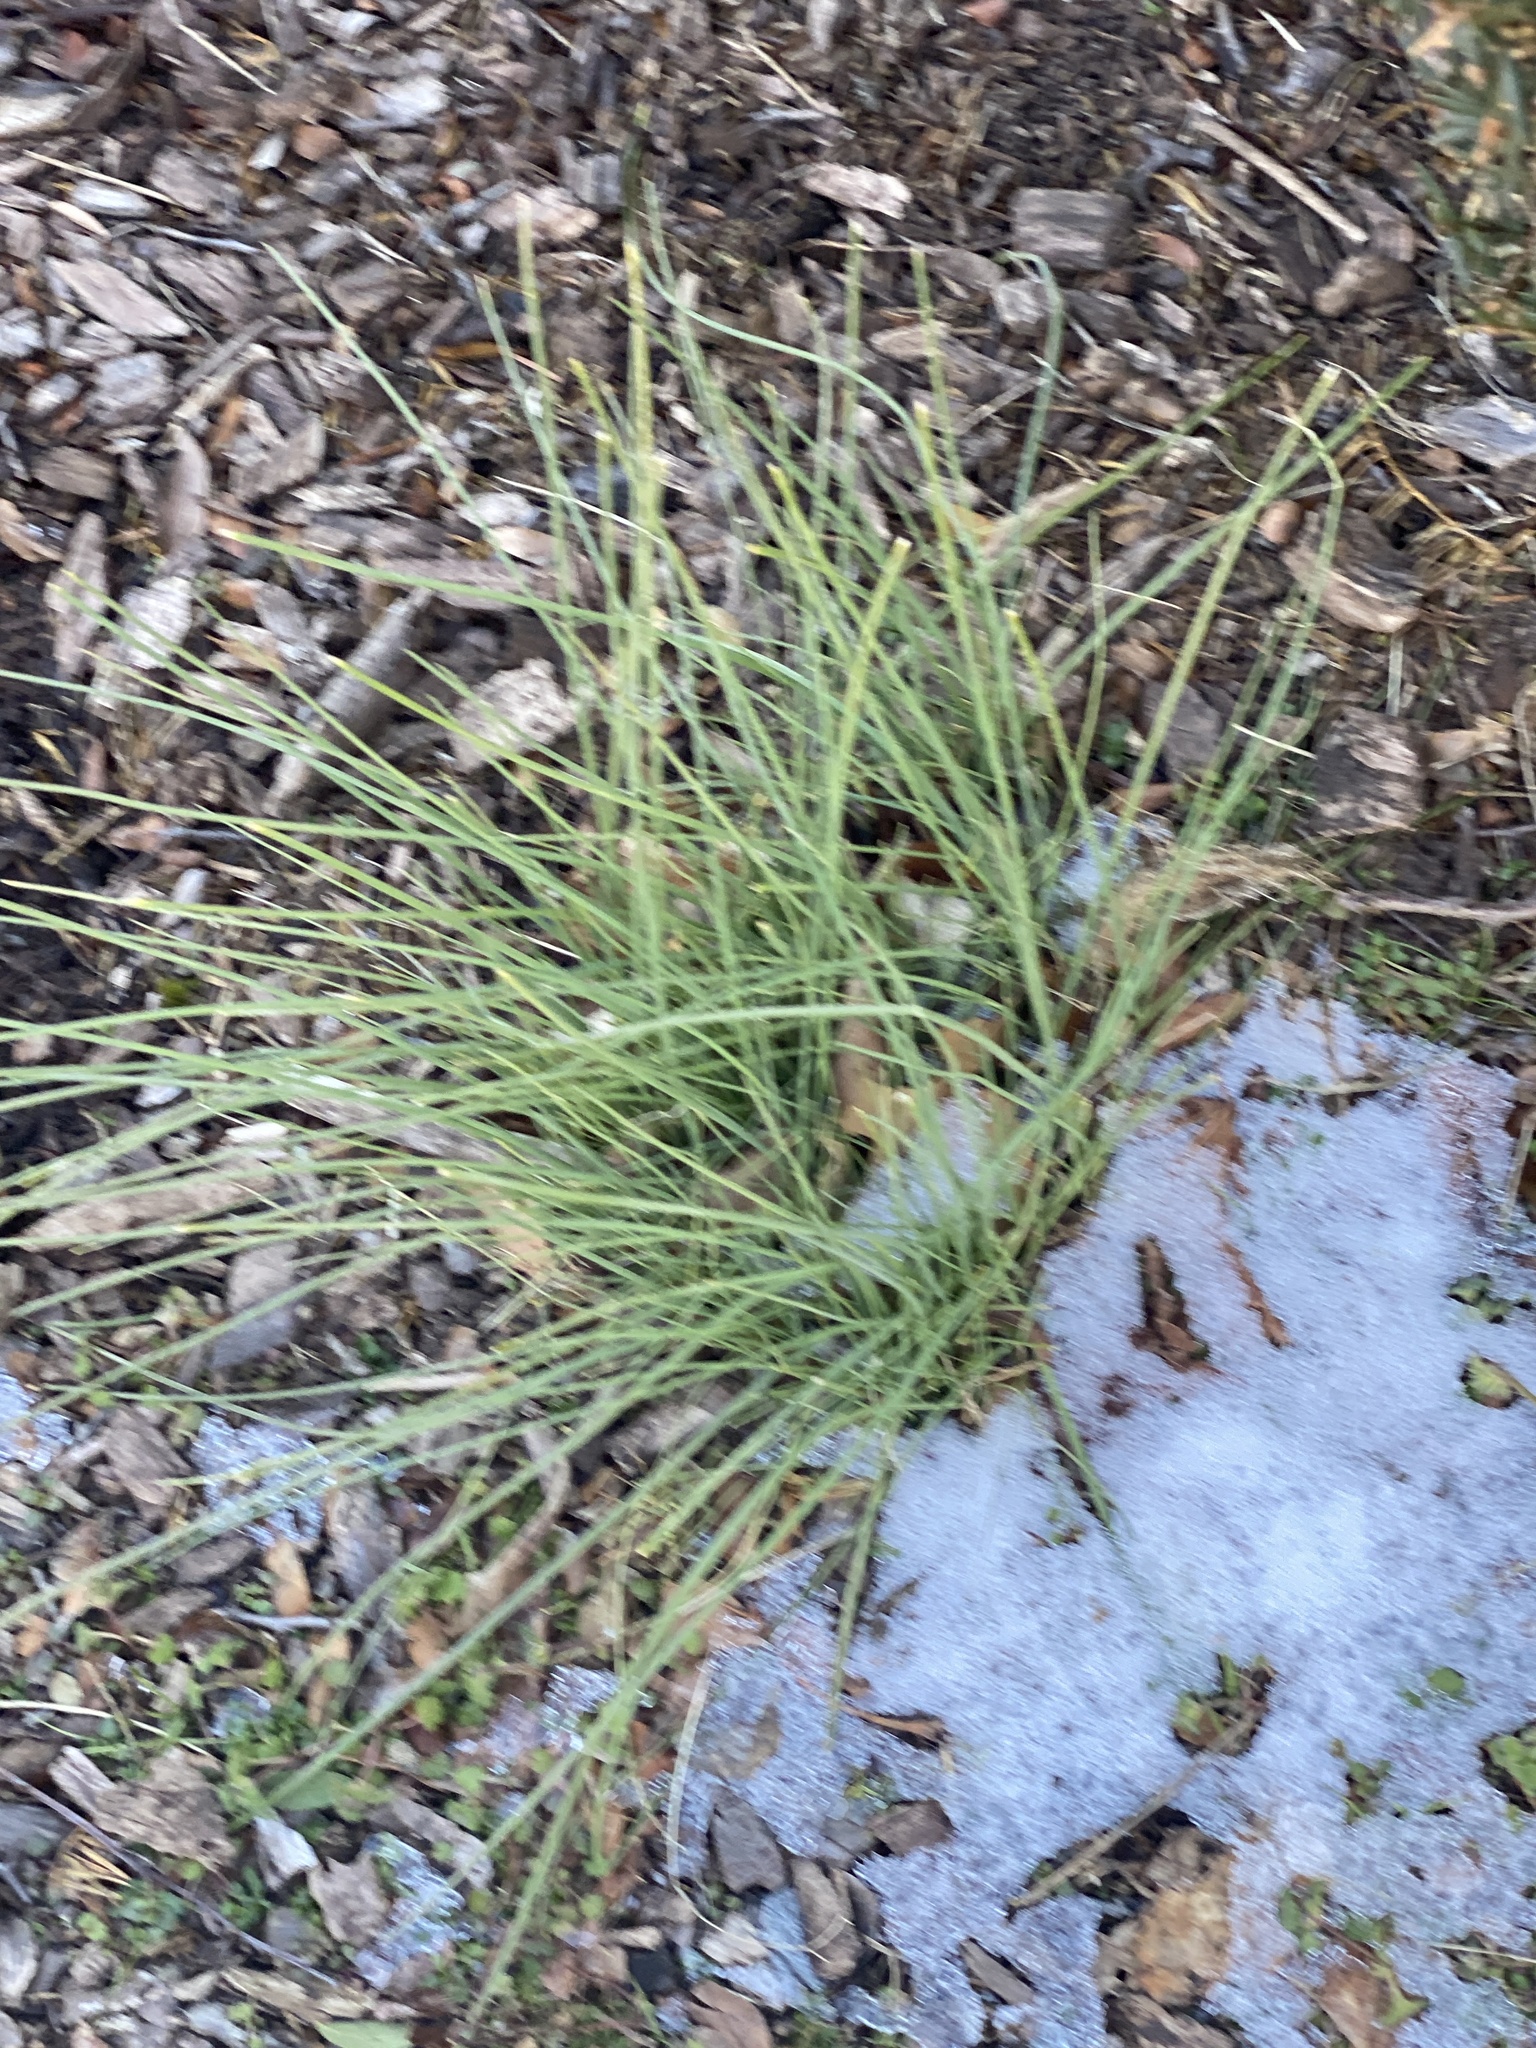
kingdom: Plantae
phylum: Tracheophyta
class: Liliopsida
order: Asparagales
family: Amaryllidaceae
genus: Allium
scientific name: Allium vineale
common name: Crow garlic
